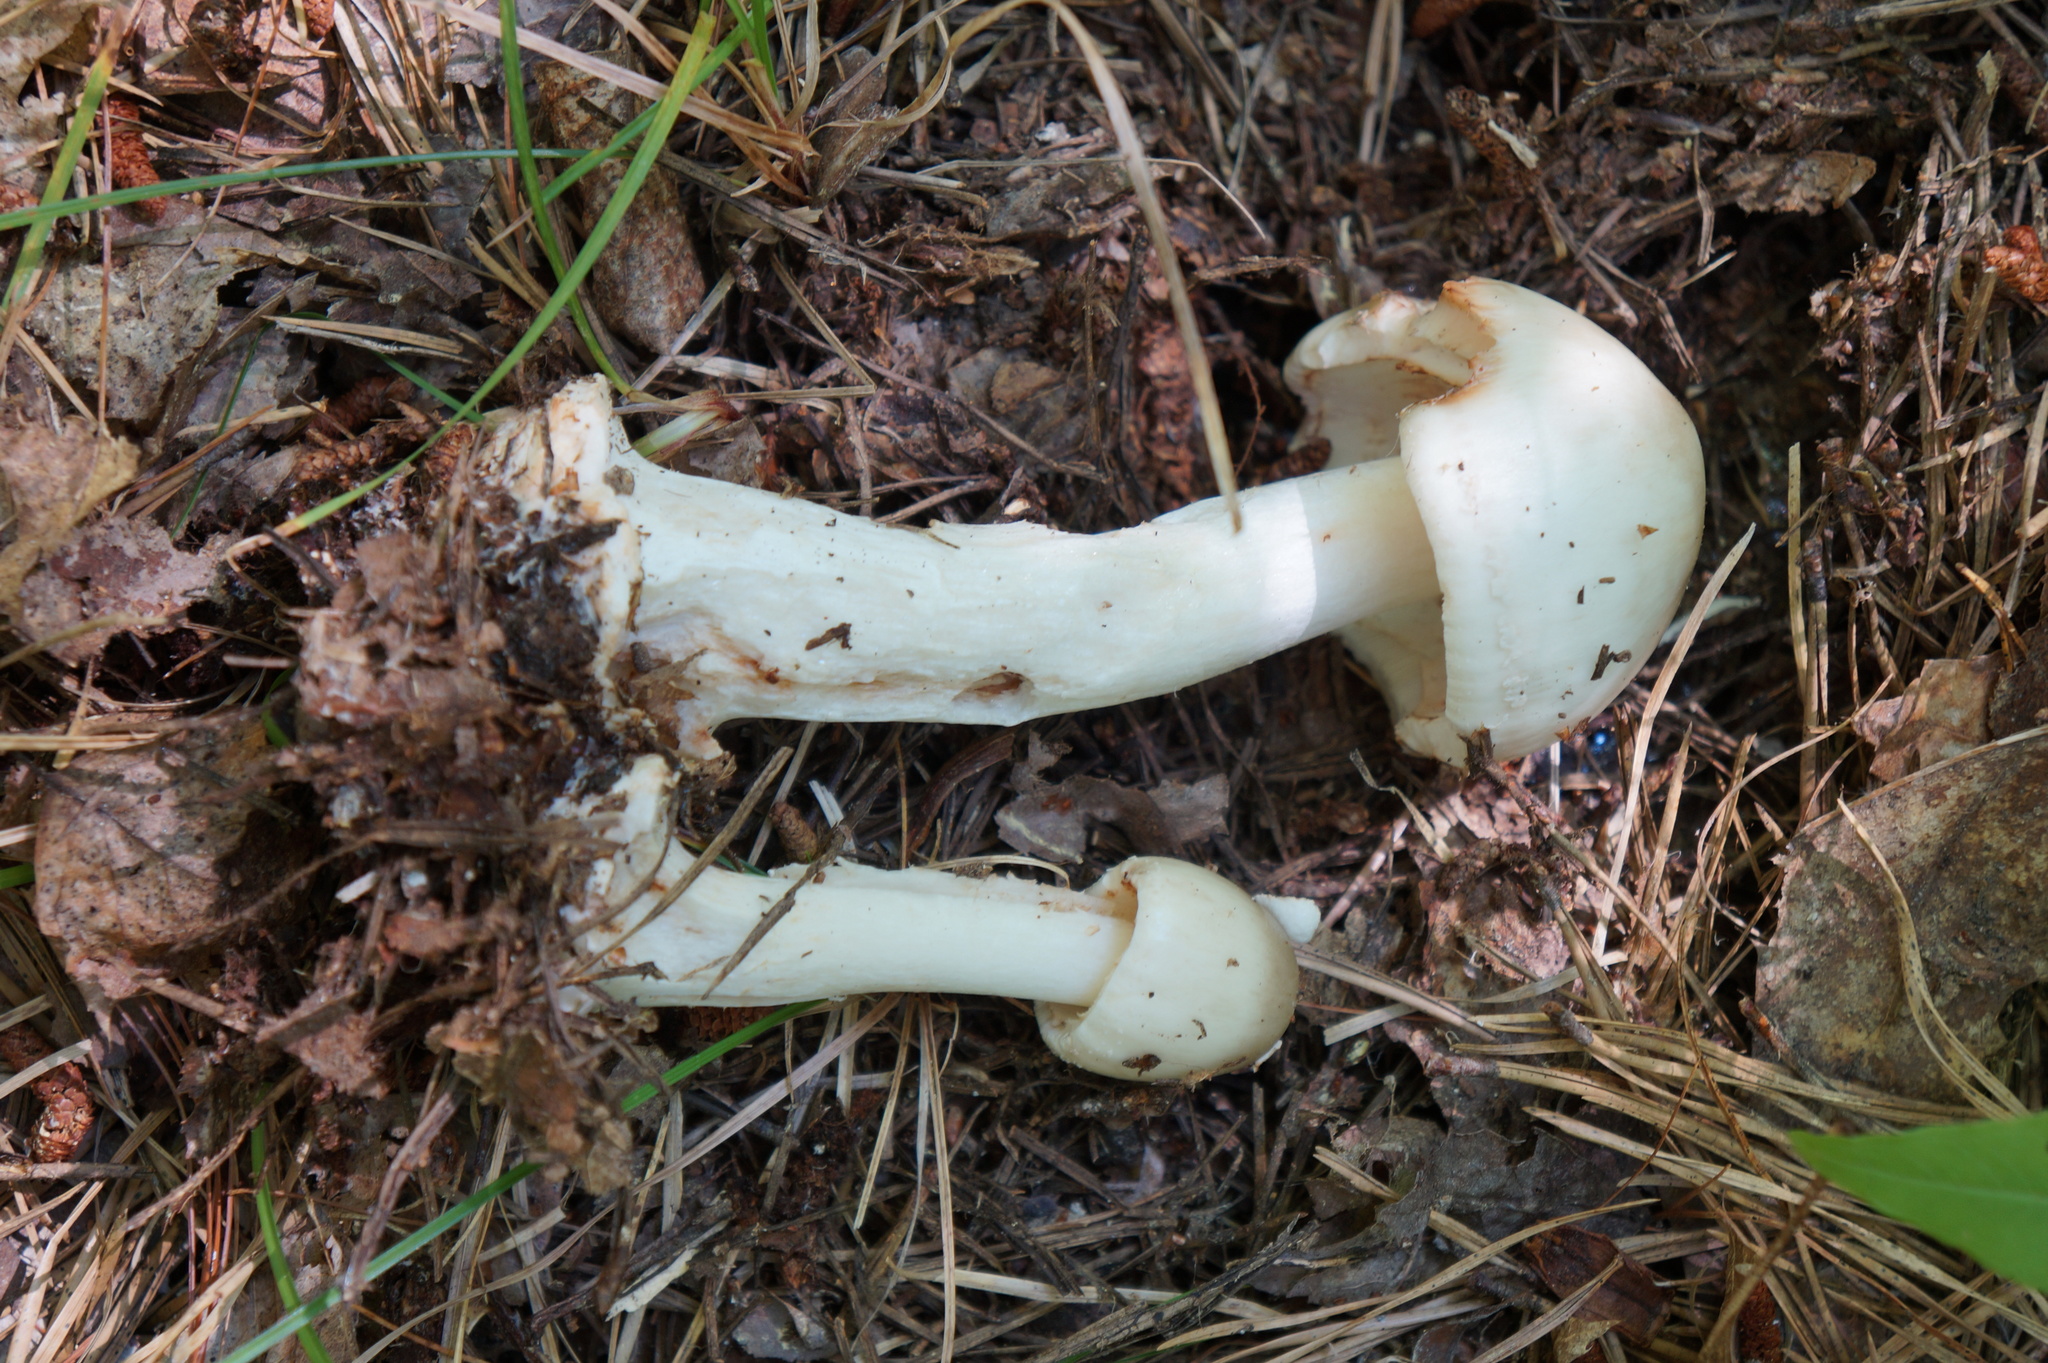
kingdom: Fungi
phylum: Basidiomycota
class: Agaricomycetes
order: Agaricales
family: Amanitaceae
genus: Amanita
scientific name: Amanita brunnescens
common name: Brown american star-footed amanita
